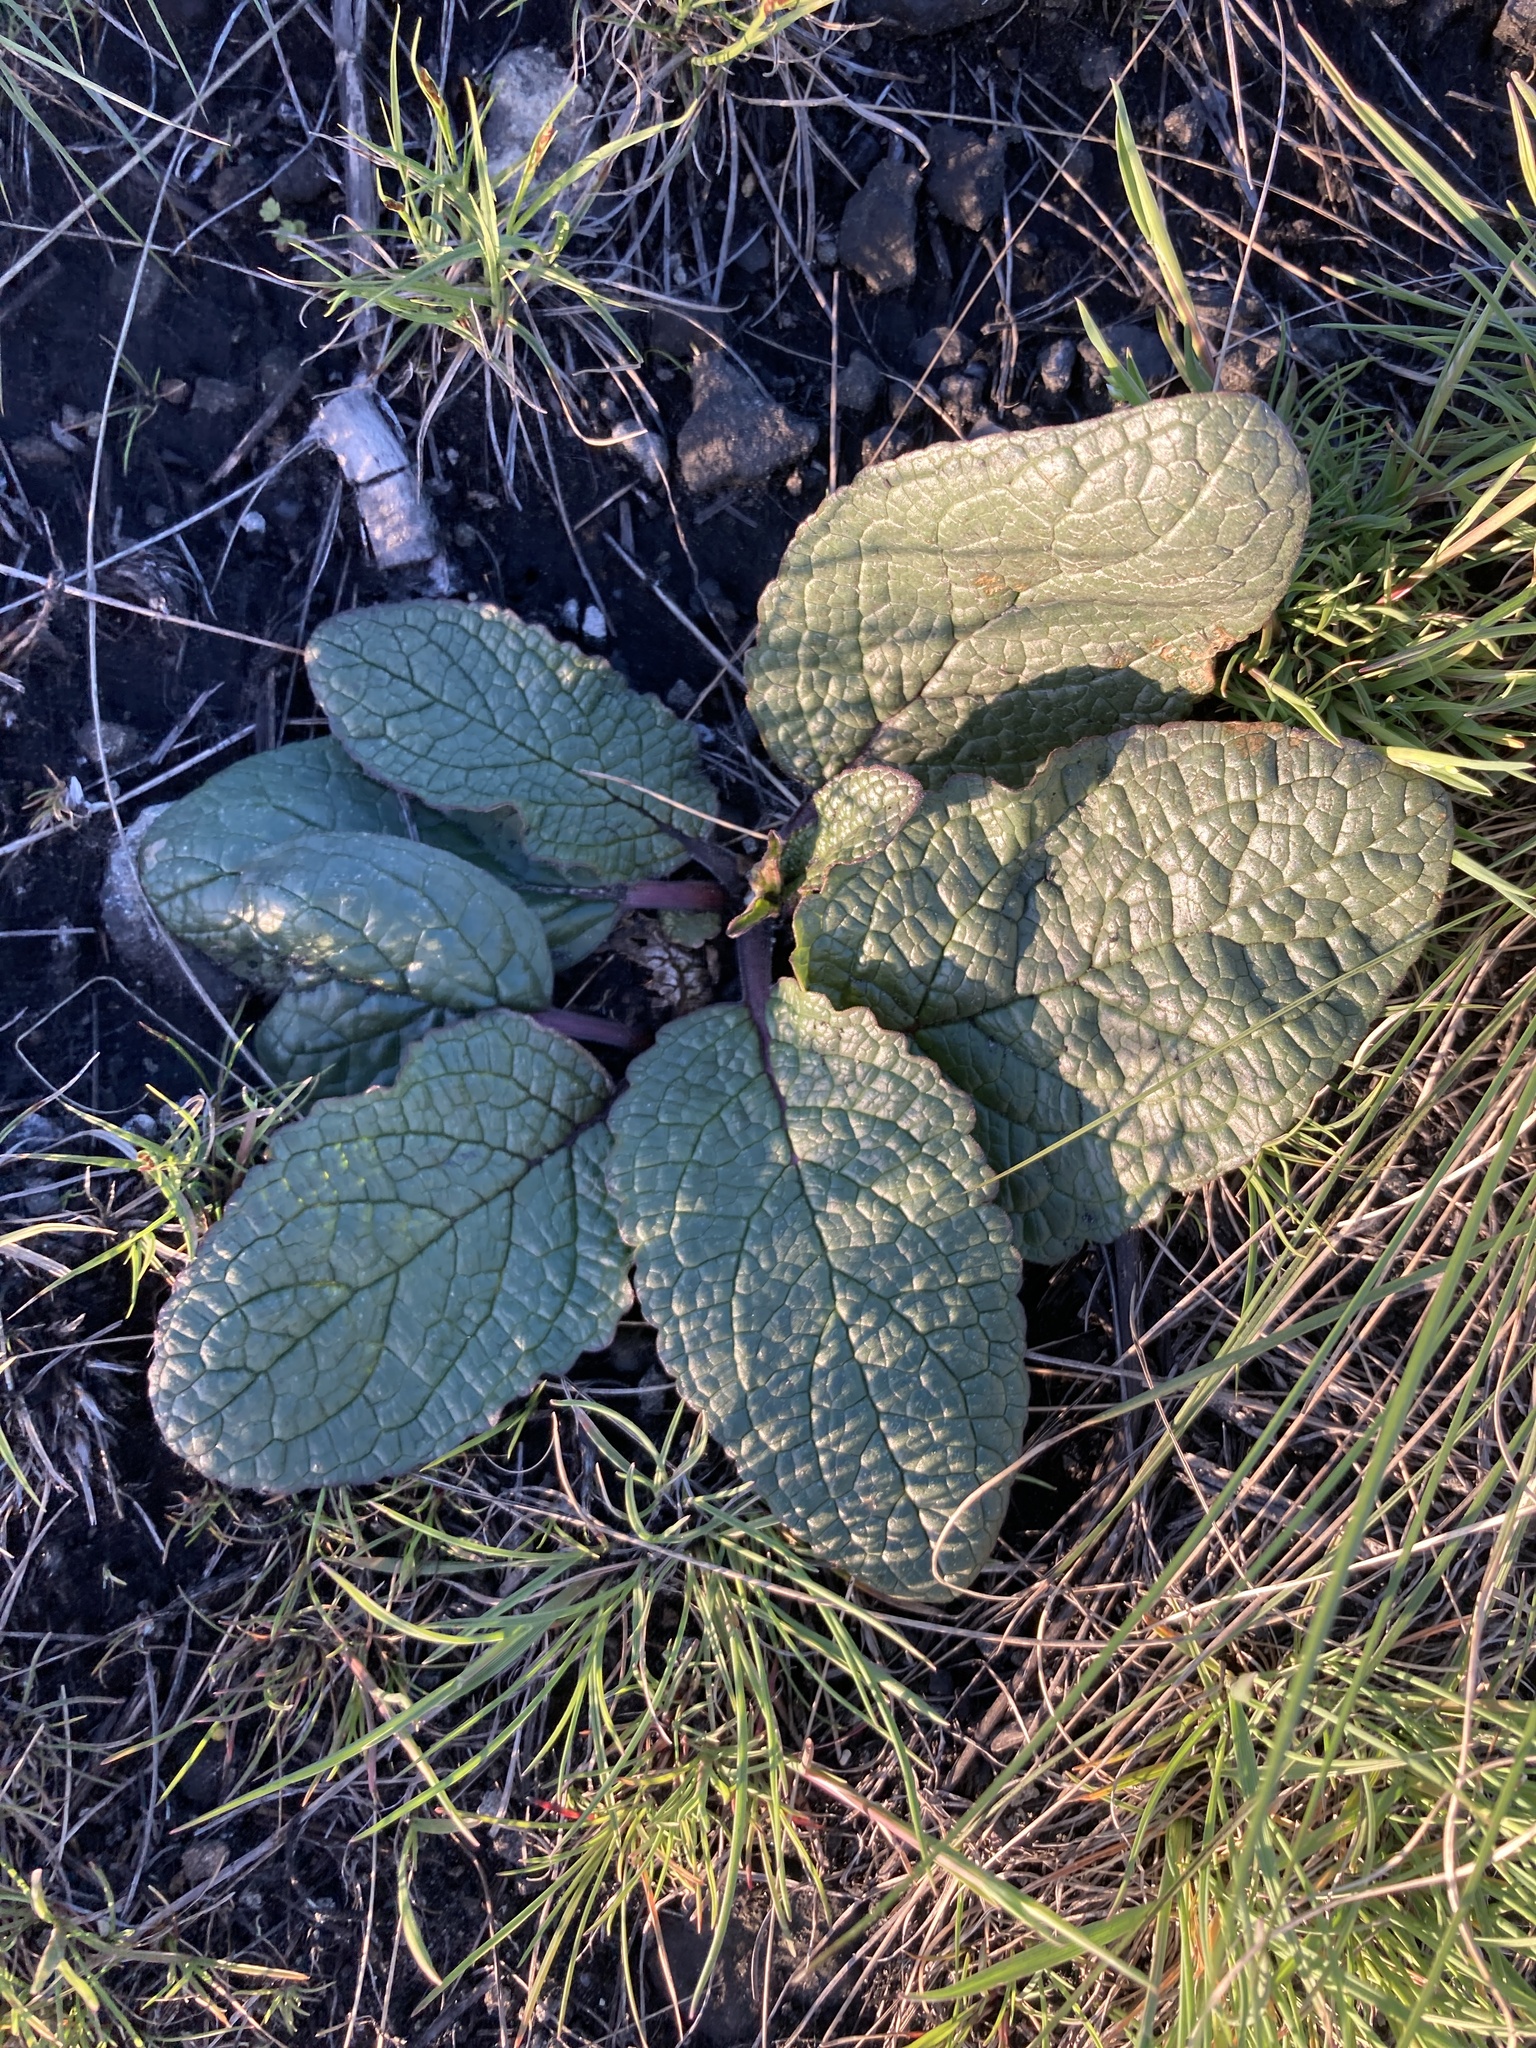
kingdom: Plantae
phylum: Tracheophyta
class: Magnoliopsida
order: Lamiales
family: Scrophulariaceae
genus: Verbascum
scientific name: Verbascum phoeniceum
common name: Purple mullein
